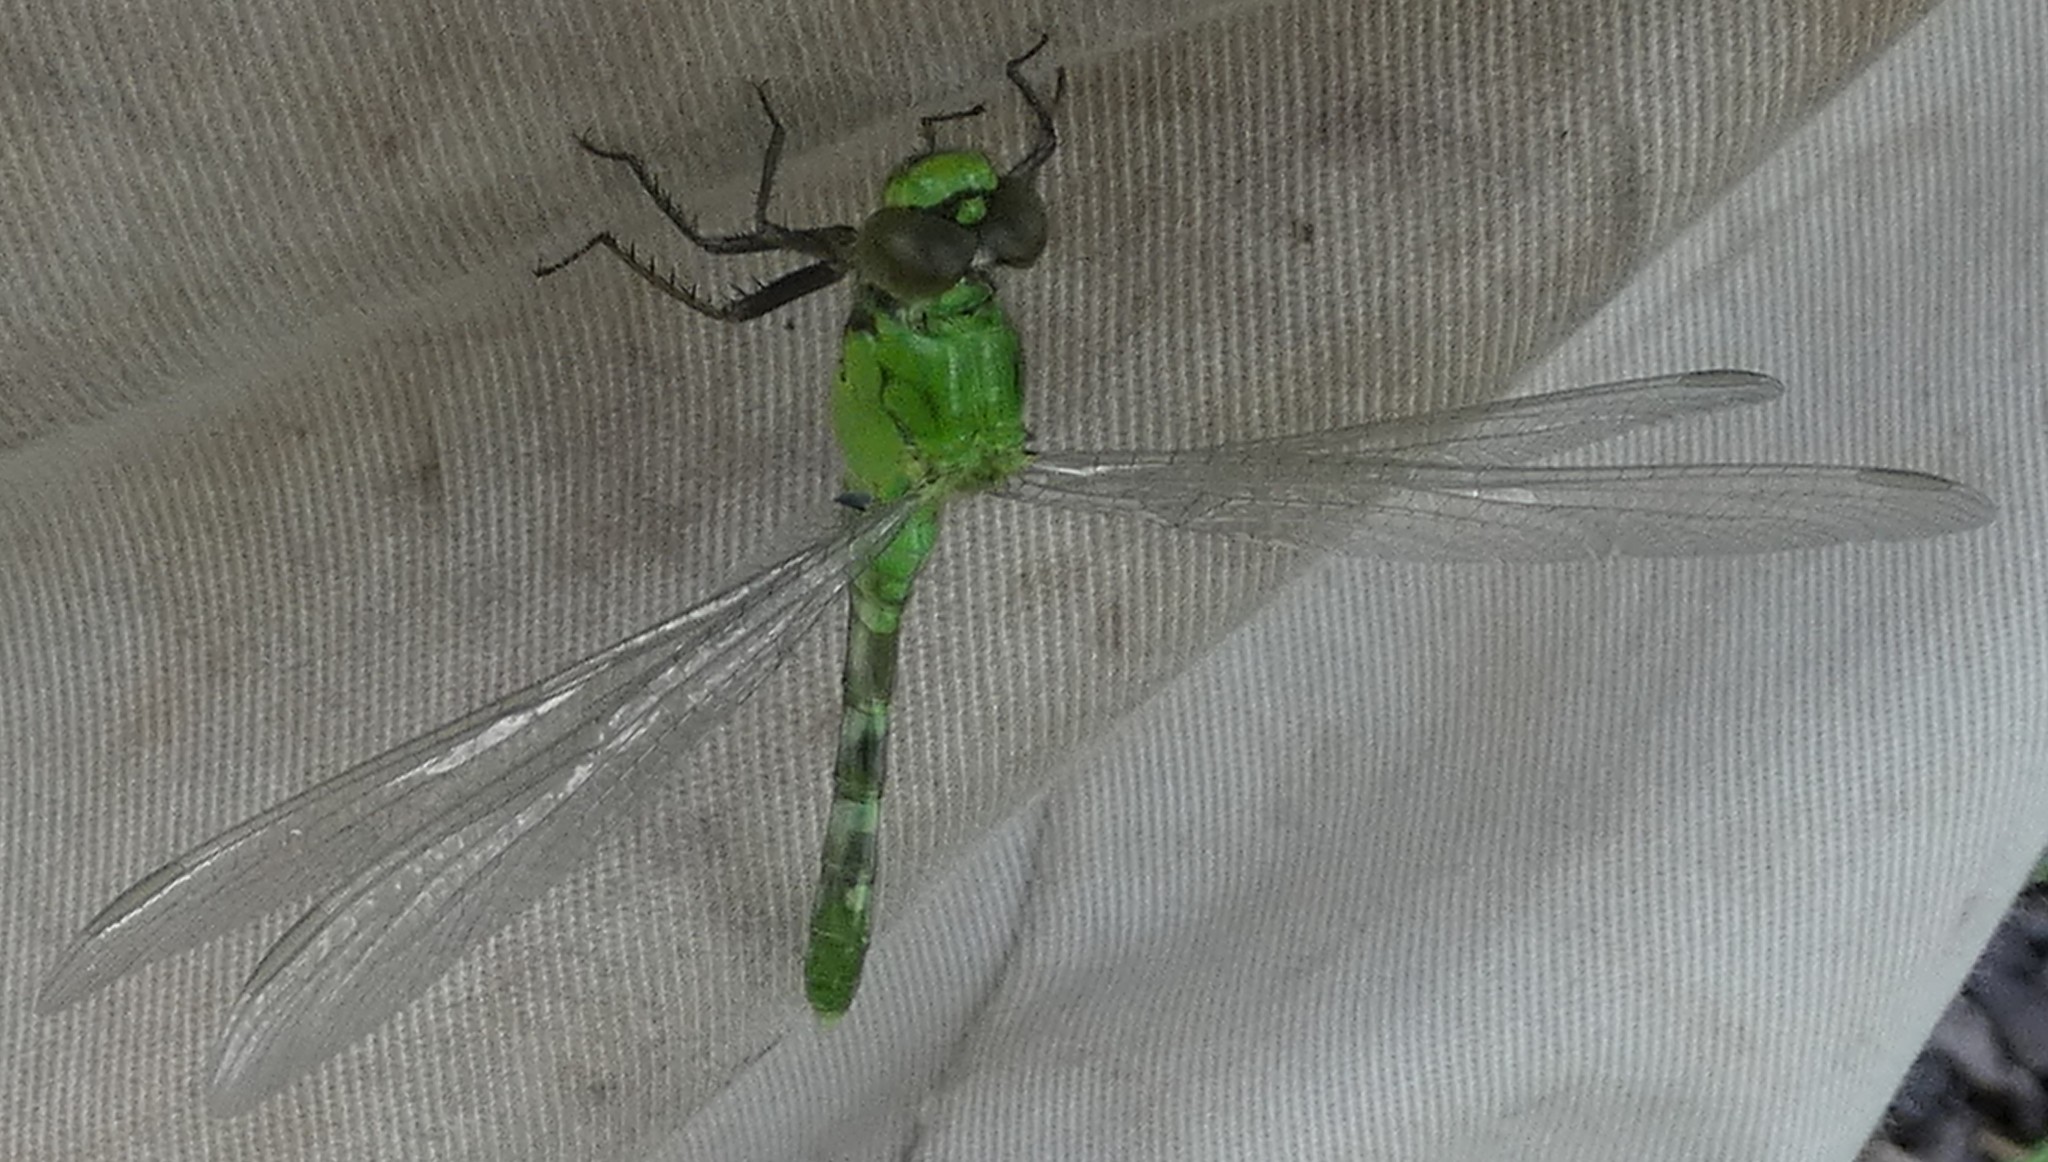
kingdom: Animalia
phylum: Arthropoda
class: Insecta
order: Odonata
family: Libellulidae
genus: Erythemis
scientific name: Erythemis simplicicollis
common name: Eastern pondhawk
